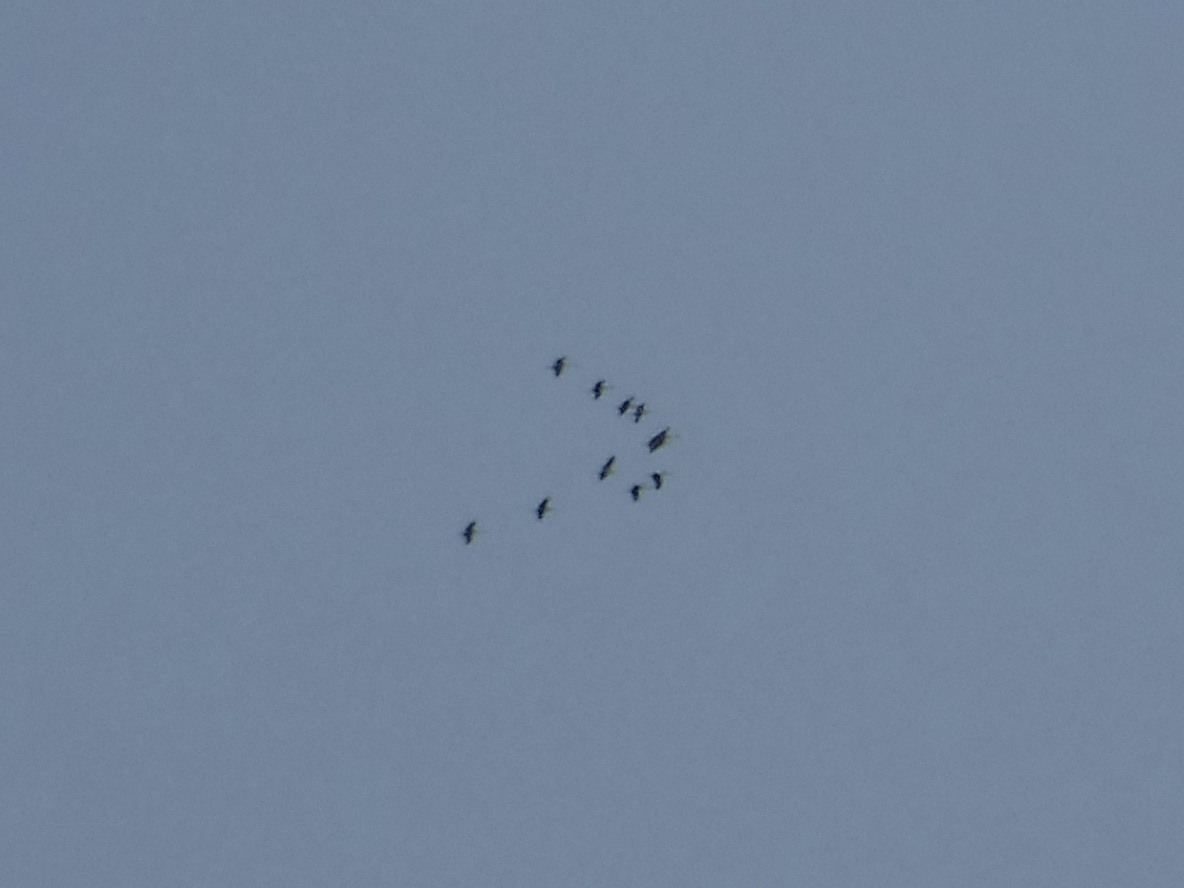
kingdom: Animalia
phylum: Chordata
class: Aves
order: Gruiformes
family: Gruidae
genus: Grus
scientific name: Grus canadensis
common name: Sandhill crane
